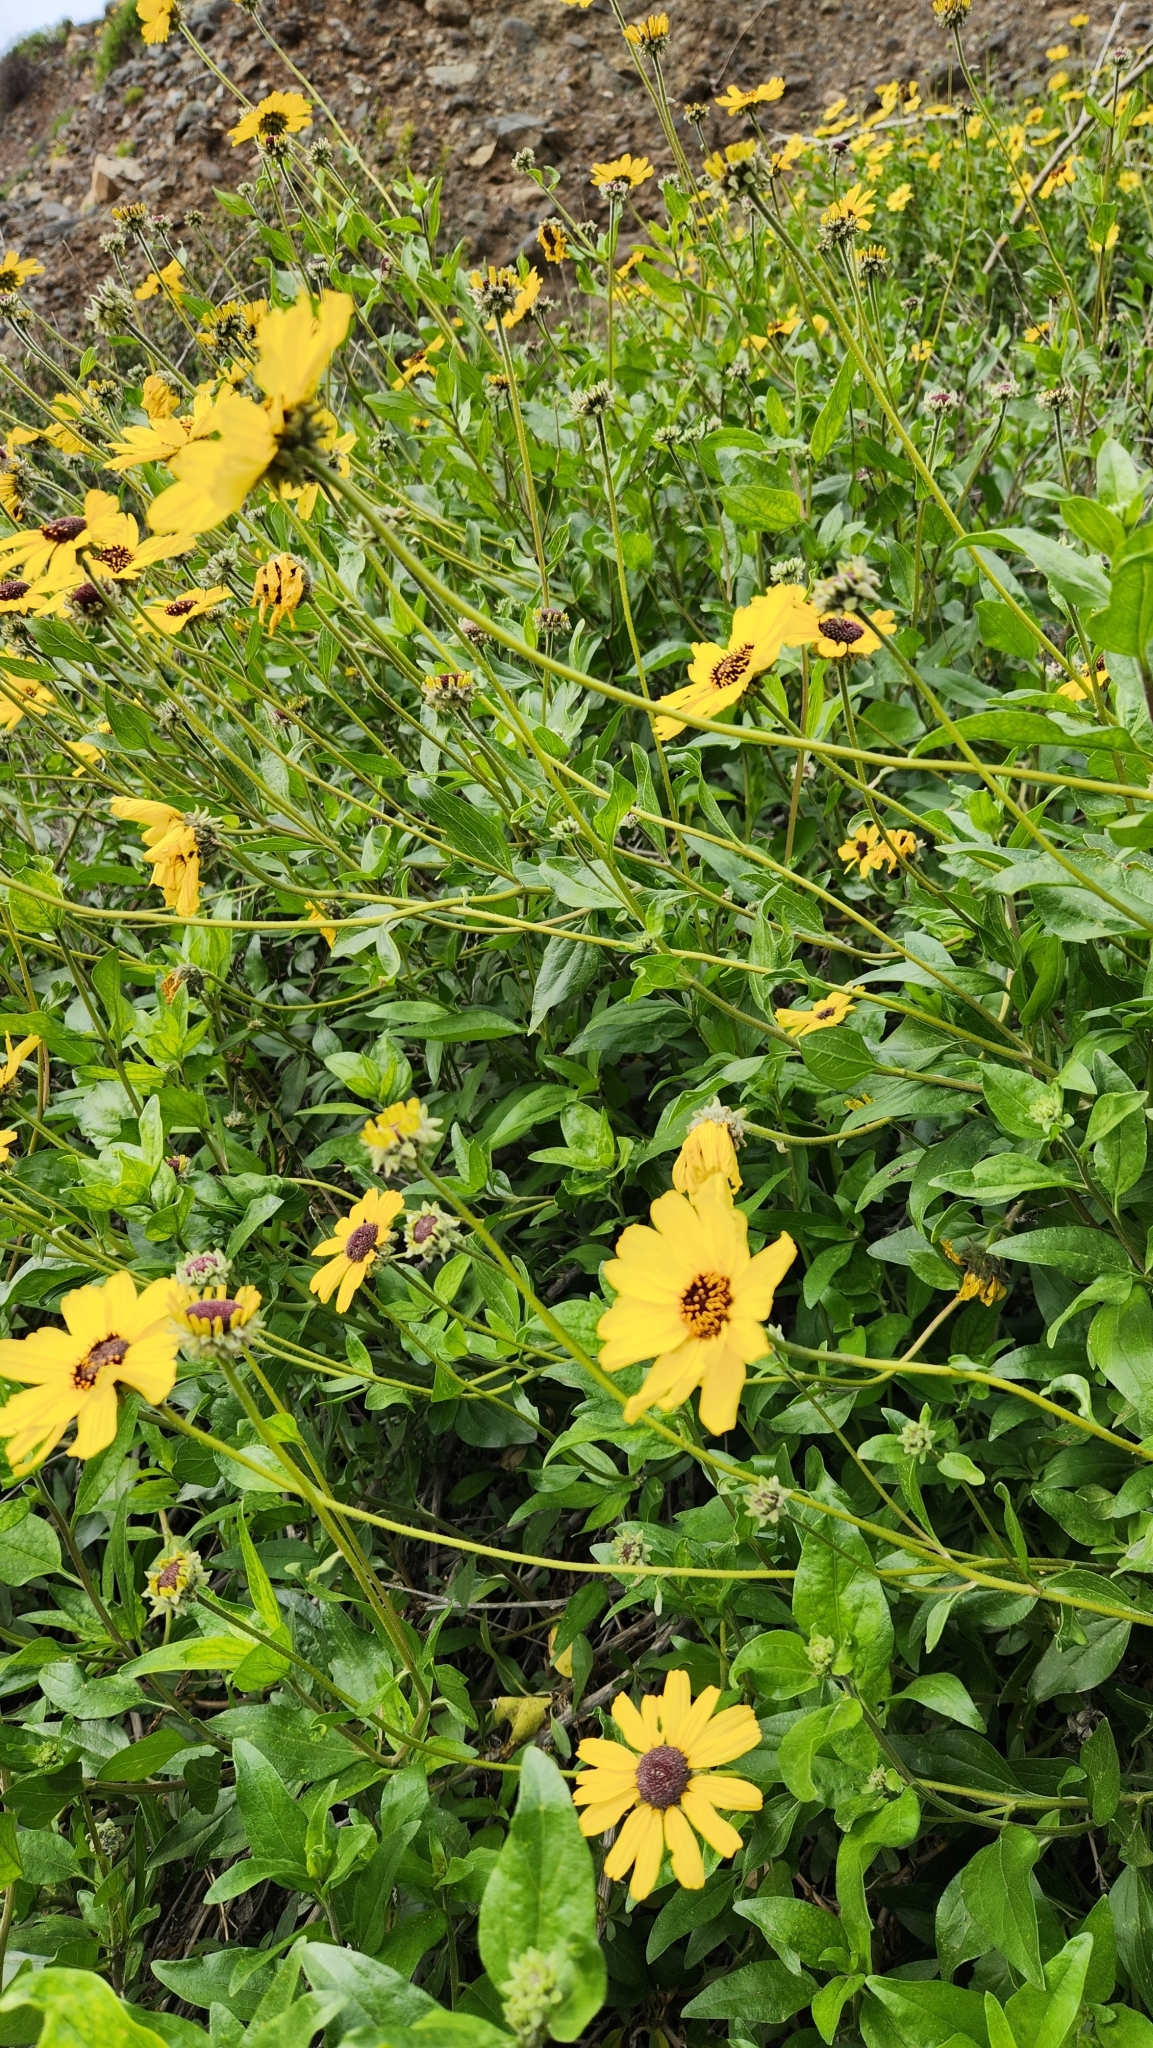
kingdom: Plantae
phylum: Tracheophyta
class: Magnoliopsida
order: Asterales
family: Asteraceae
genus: Encelia
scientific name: Encelia californica
